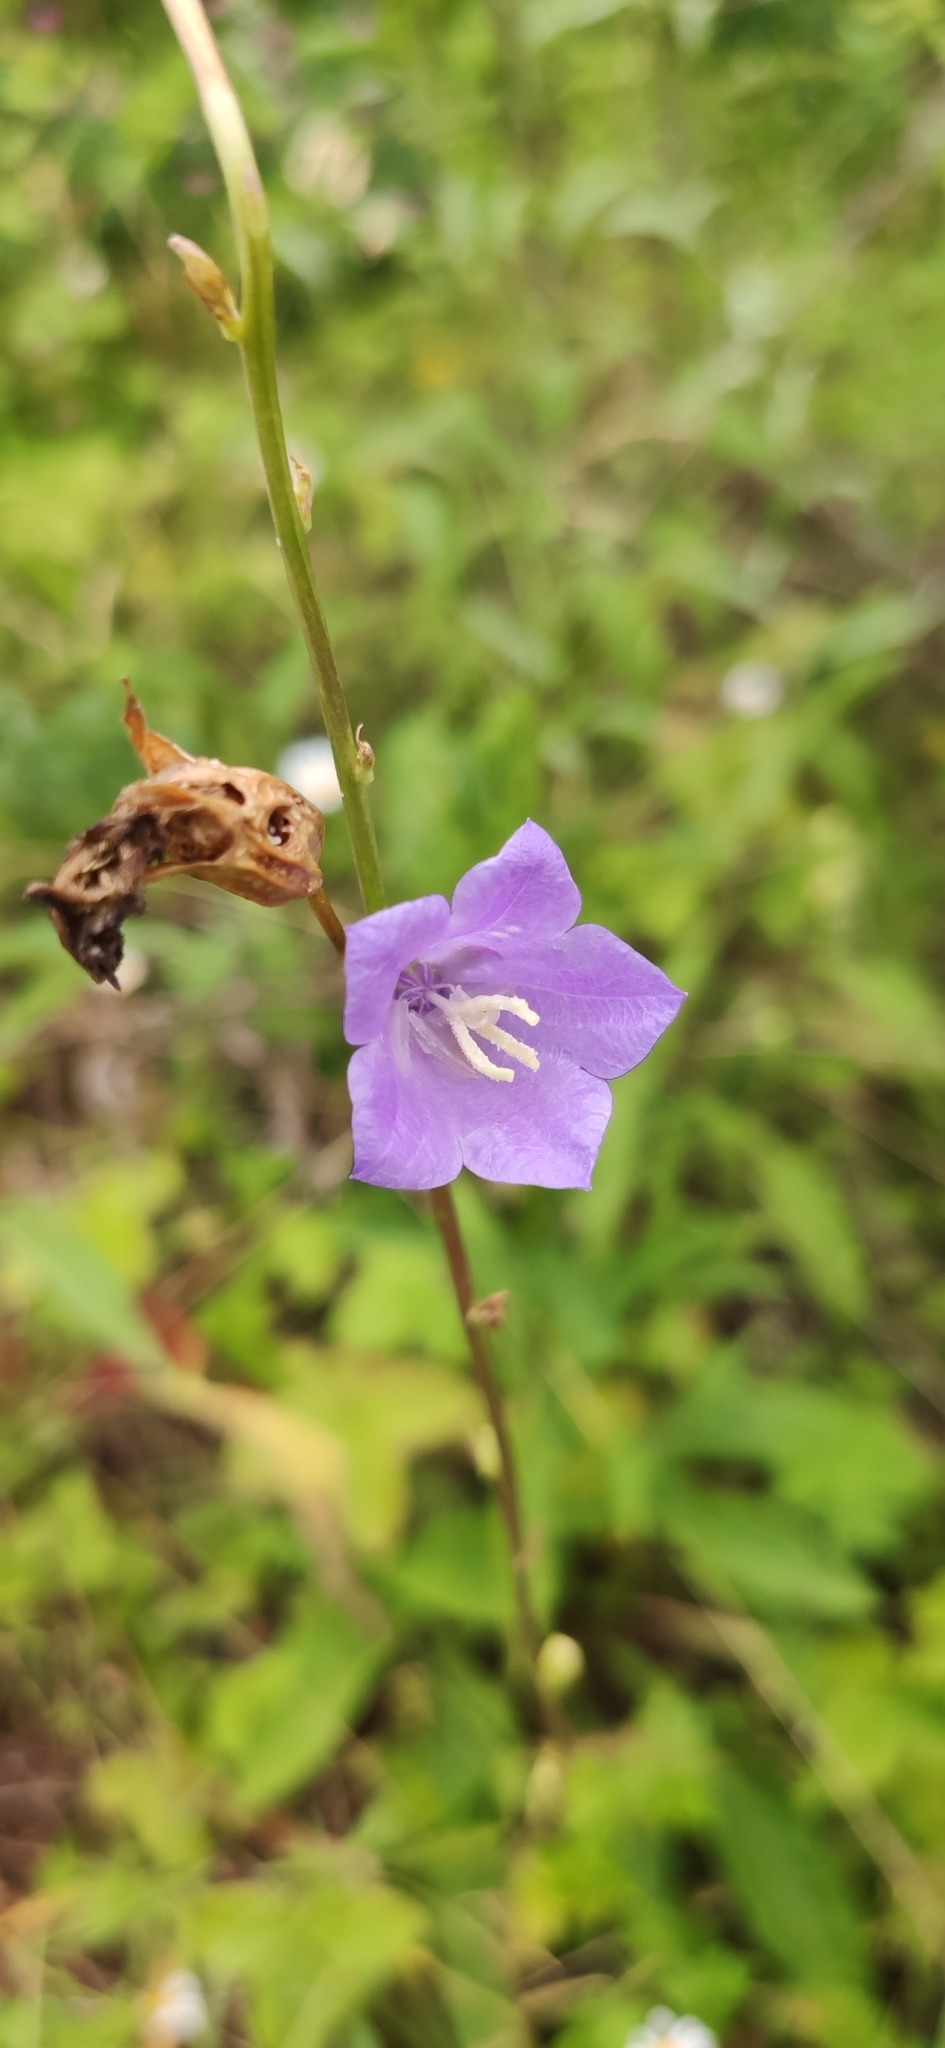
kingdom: Plantae
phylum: Tracheophyta
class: Magnoliopsida
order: Asterales
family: Campanulaceae
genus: Campanula
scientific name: Campanula persicifolia
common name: Peach-leaved bellflower
